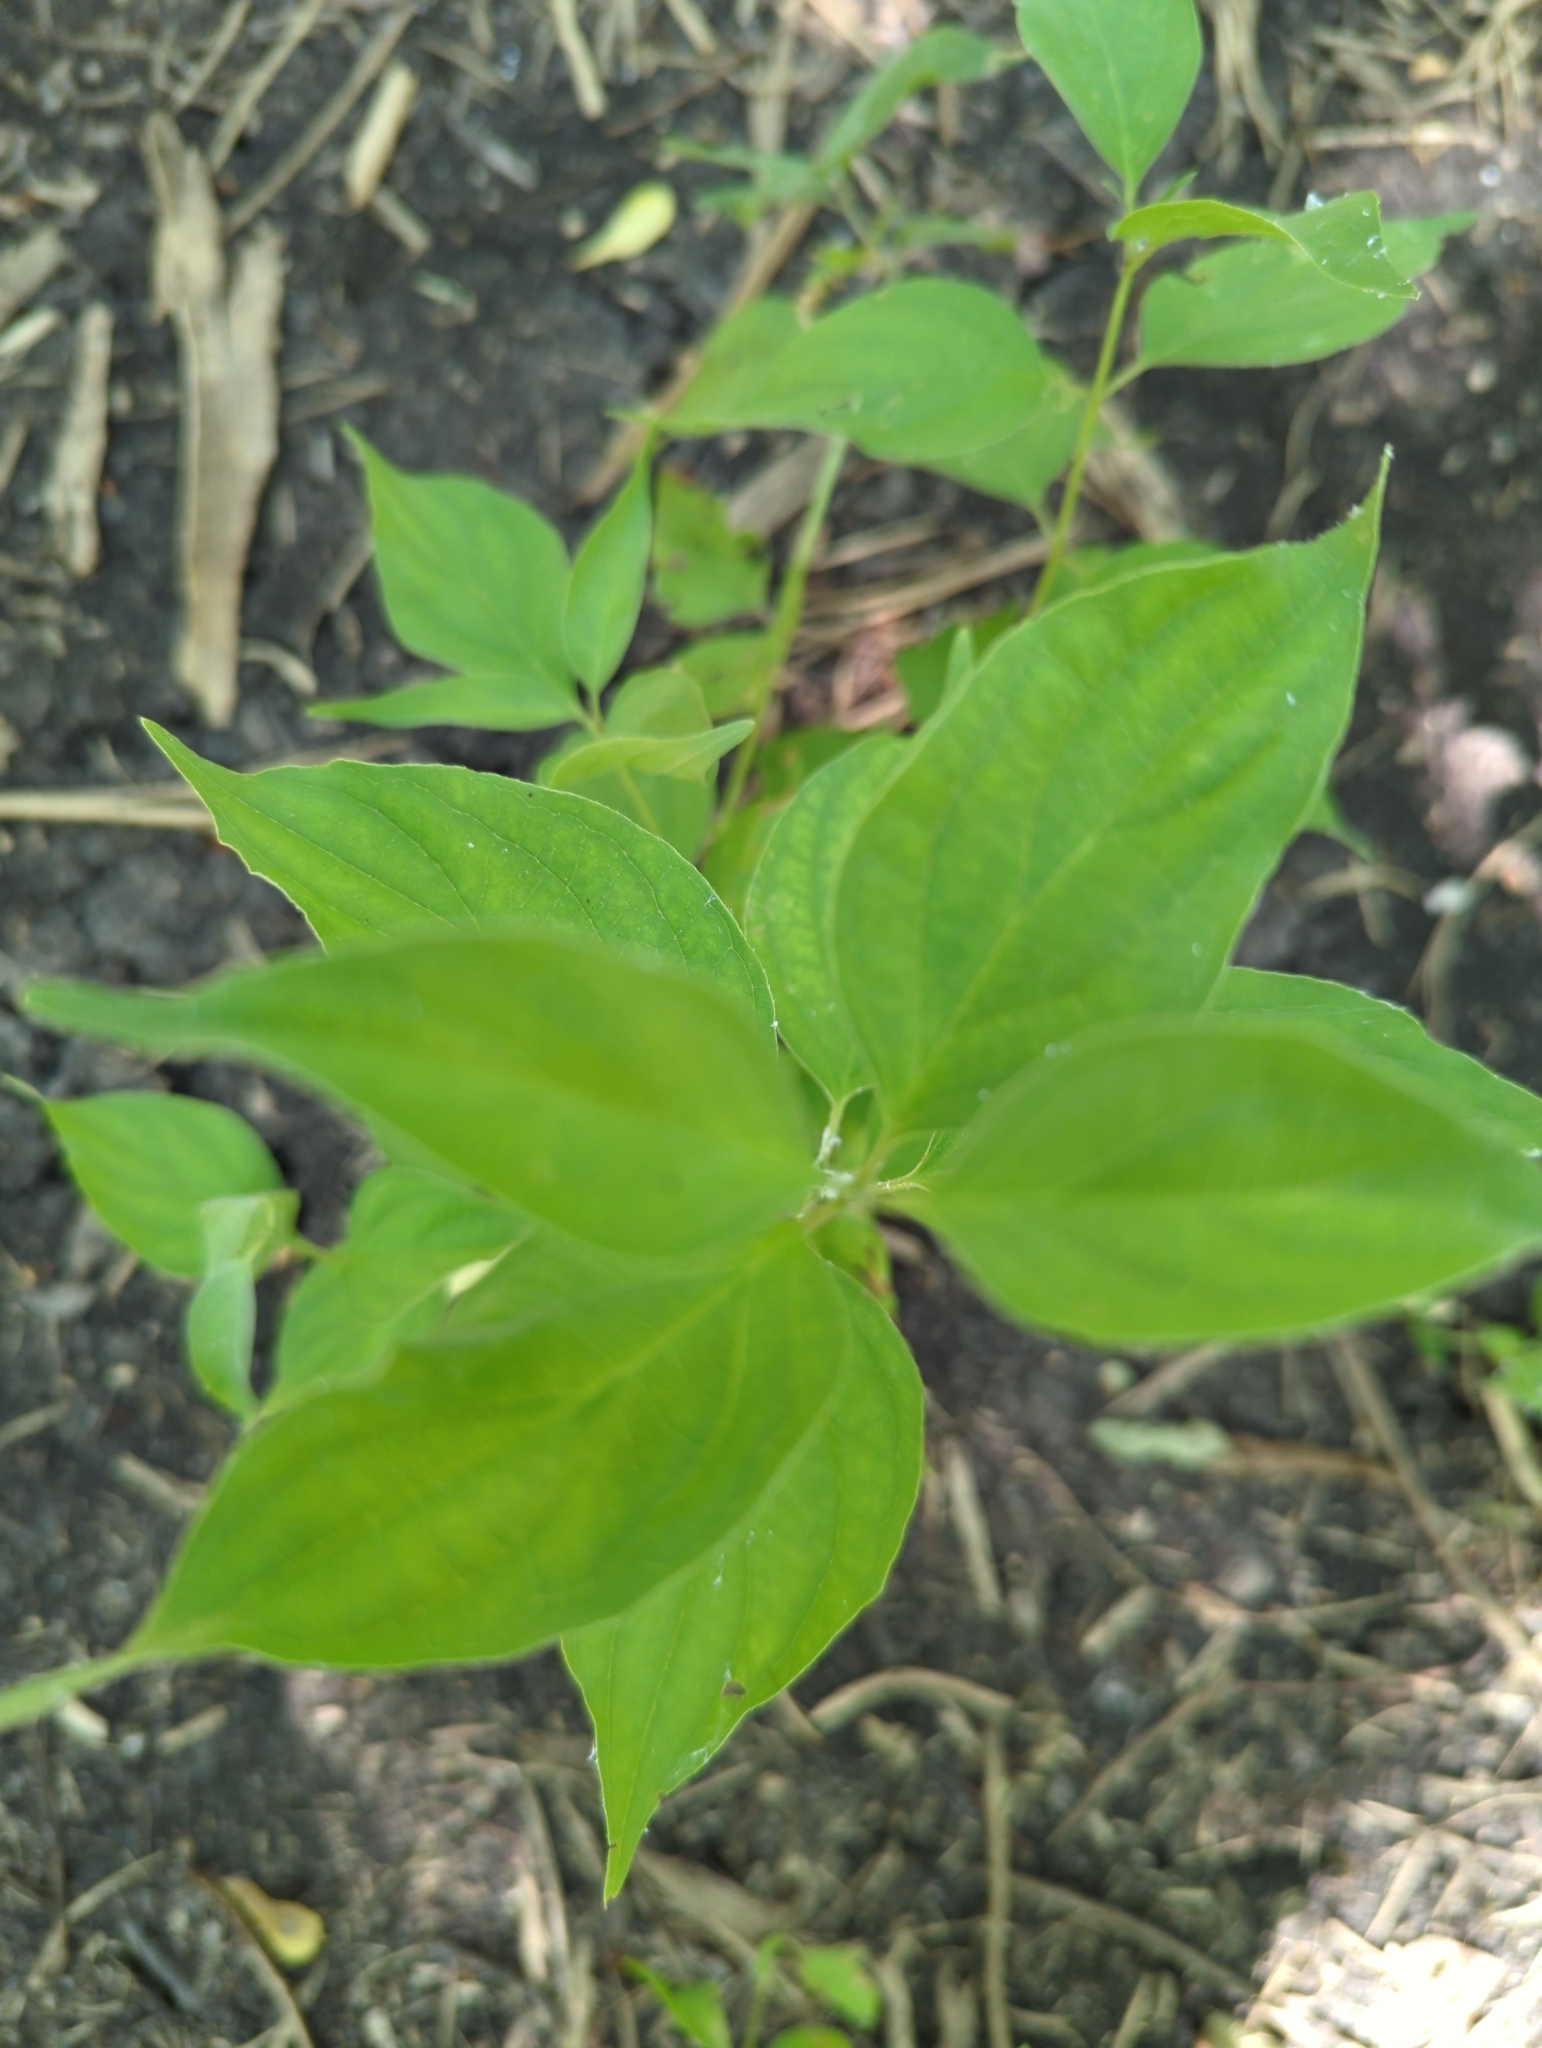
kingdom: Plantae
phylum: Tracheophyta
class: Magnoliopsida
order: Cornales
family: Cornaceae
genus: Cornus
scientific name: Cornus drummondii
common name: Rough-leaf dogwood
